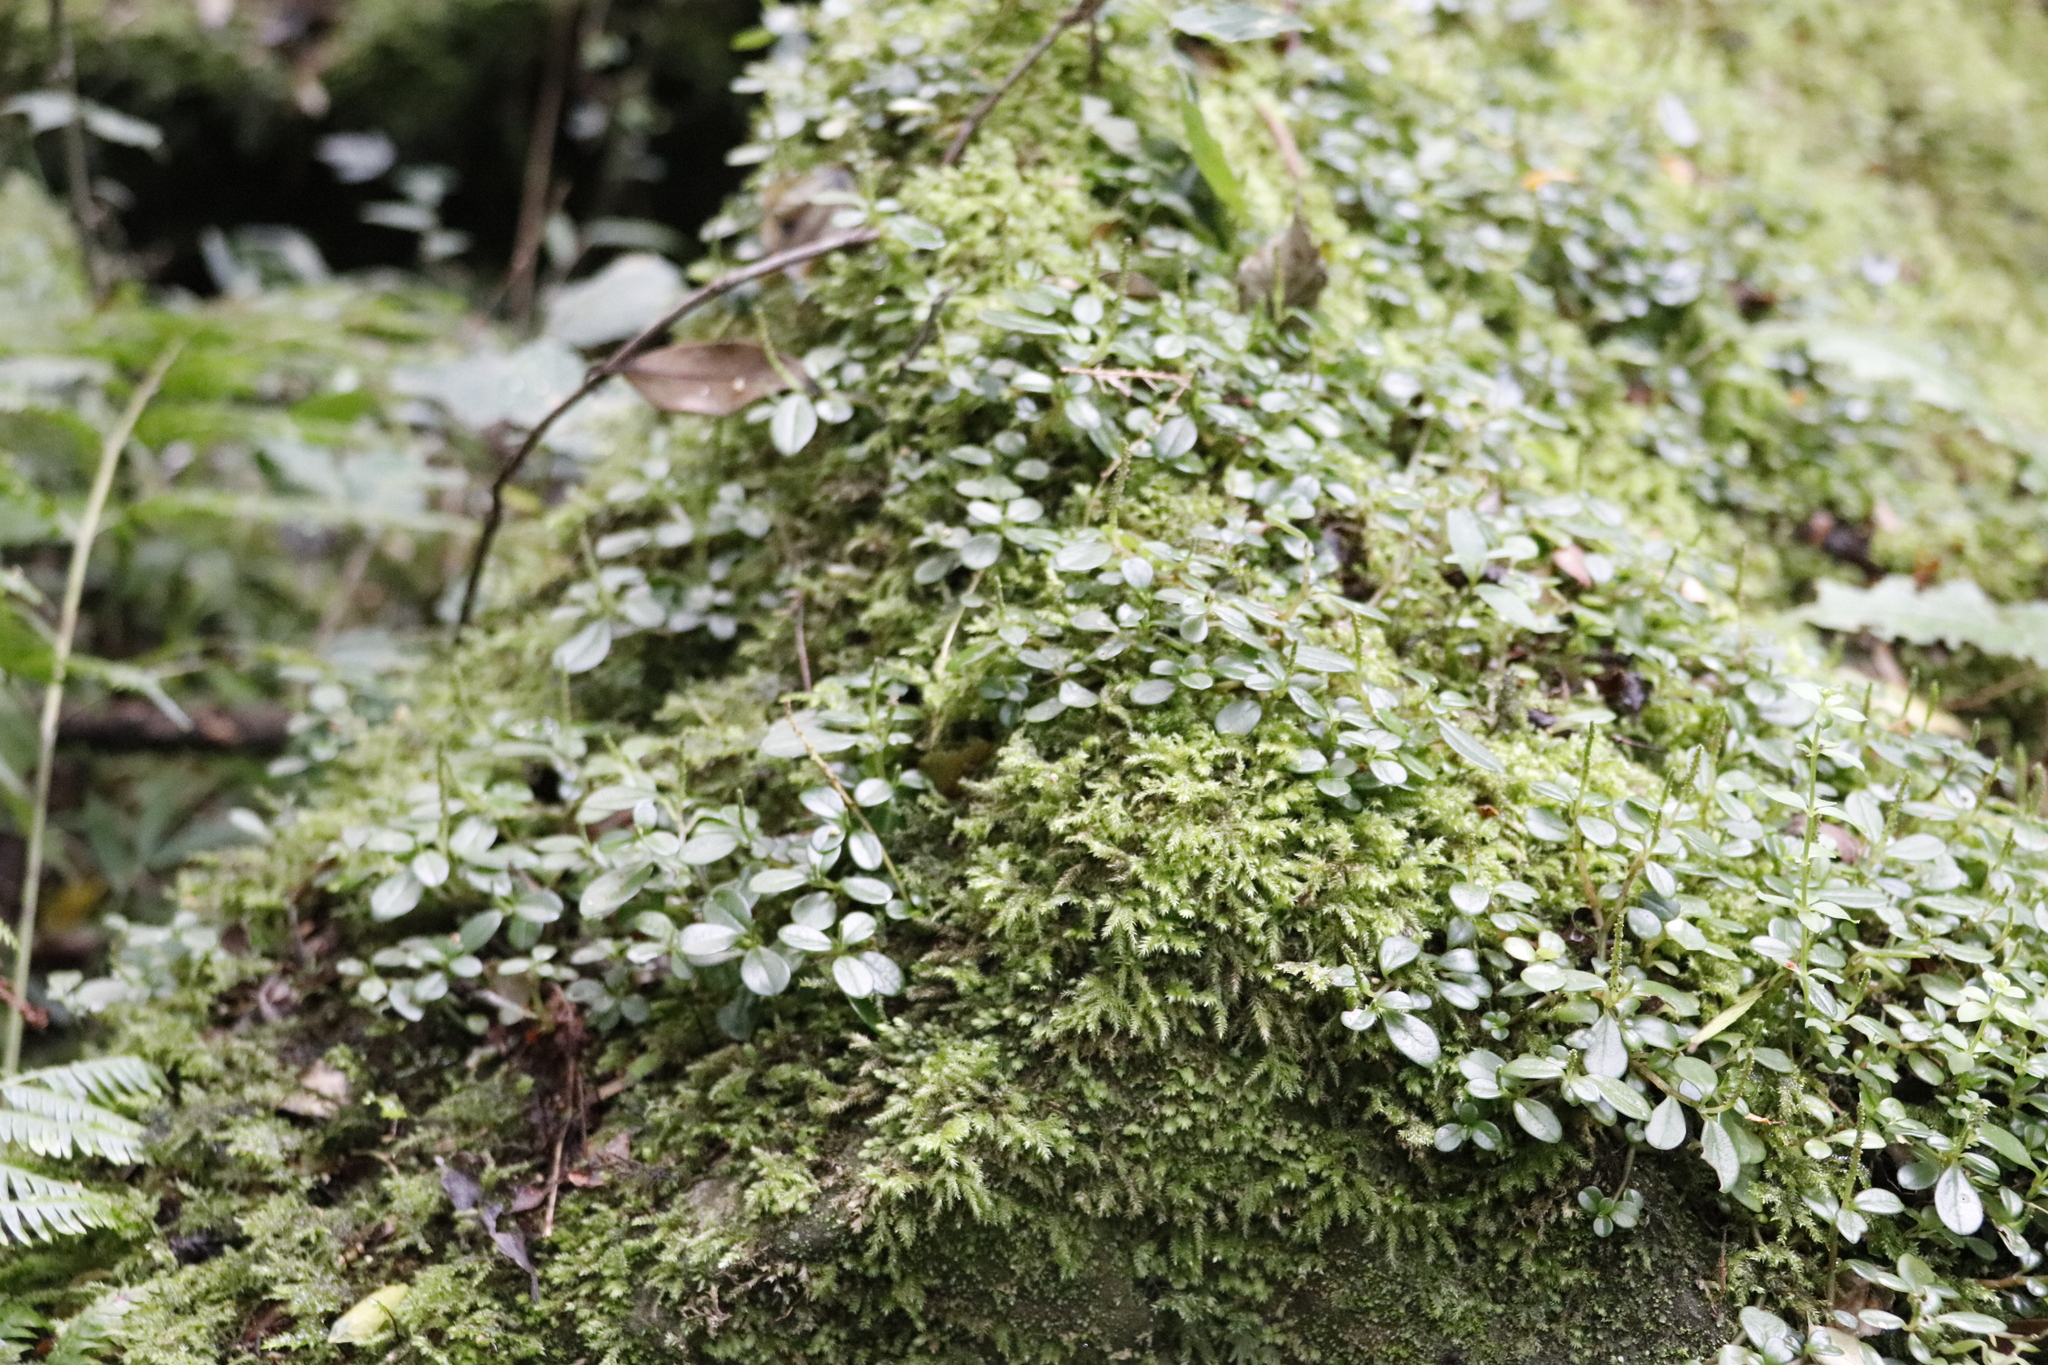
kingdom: Plantae
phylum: Tracheophyta
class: Magnoliopsida
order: Piperales
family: Piperaceae
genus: Peperomia
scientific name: Peperomia retusa
